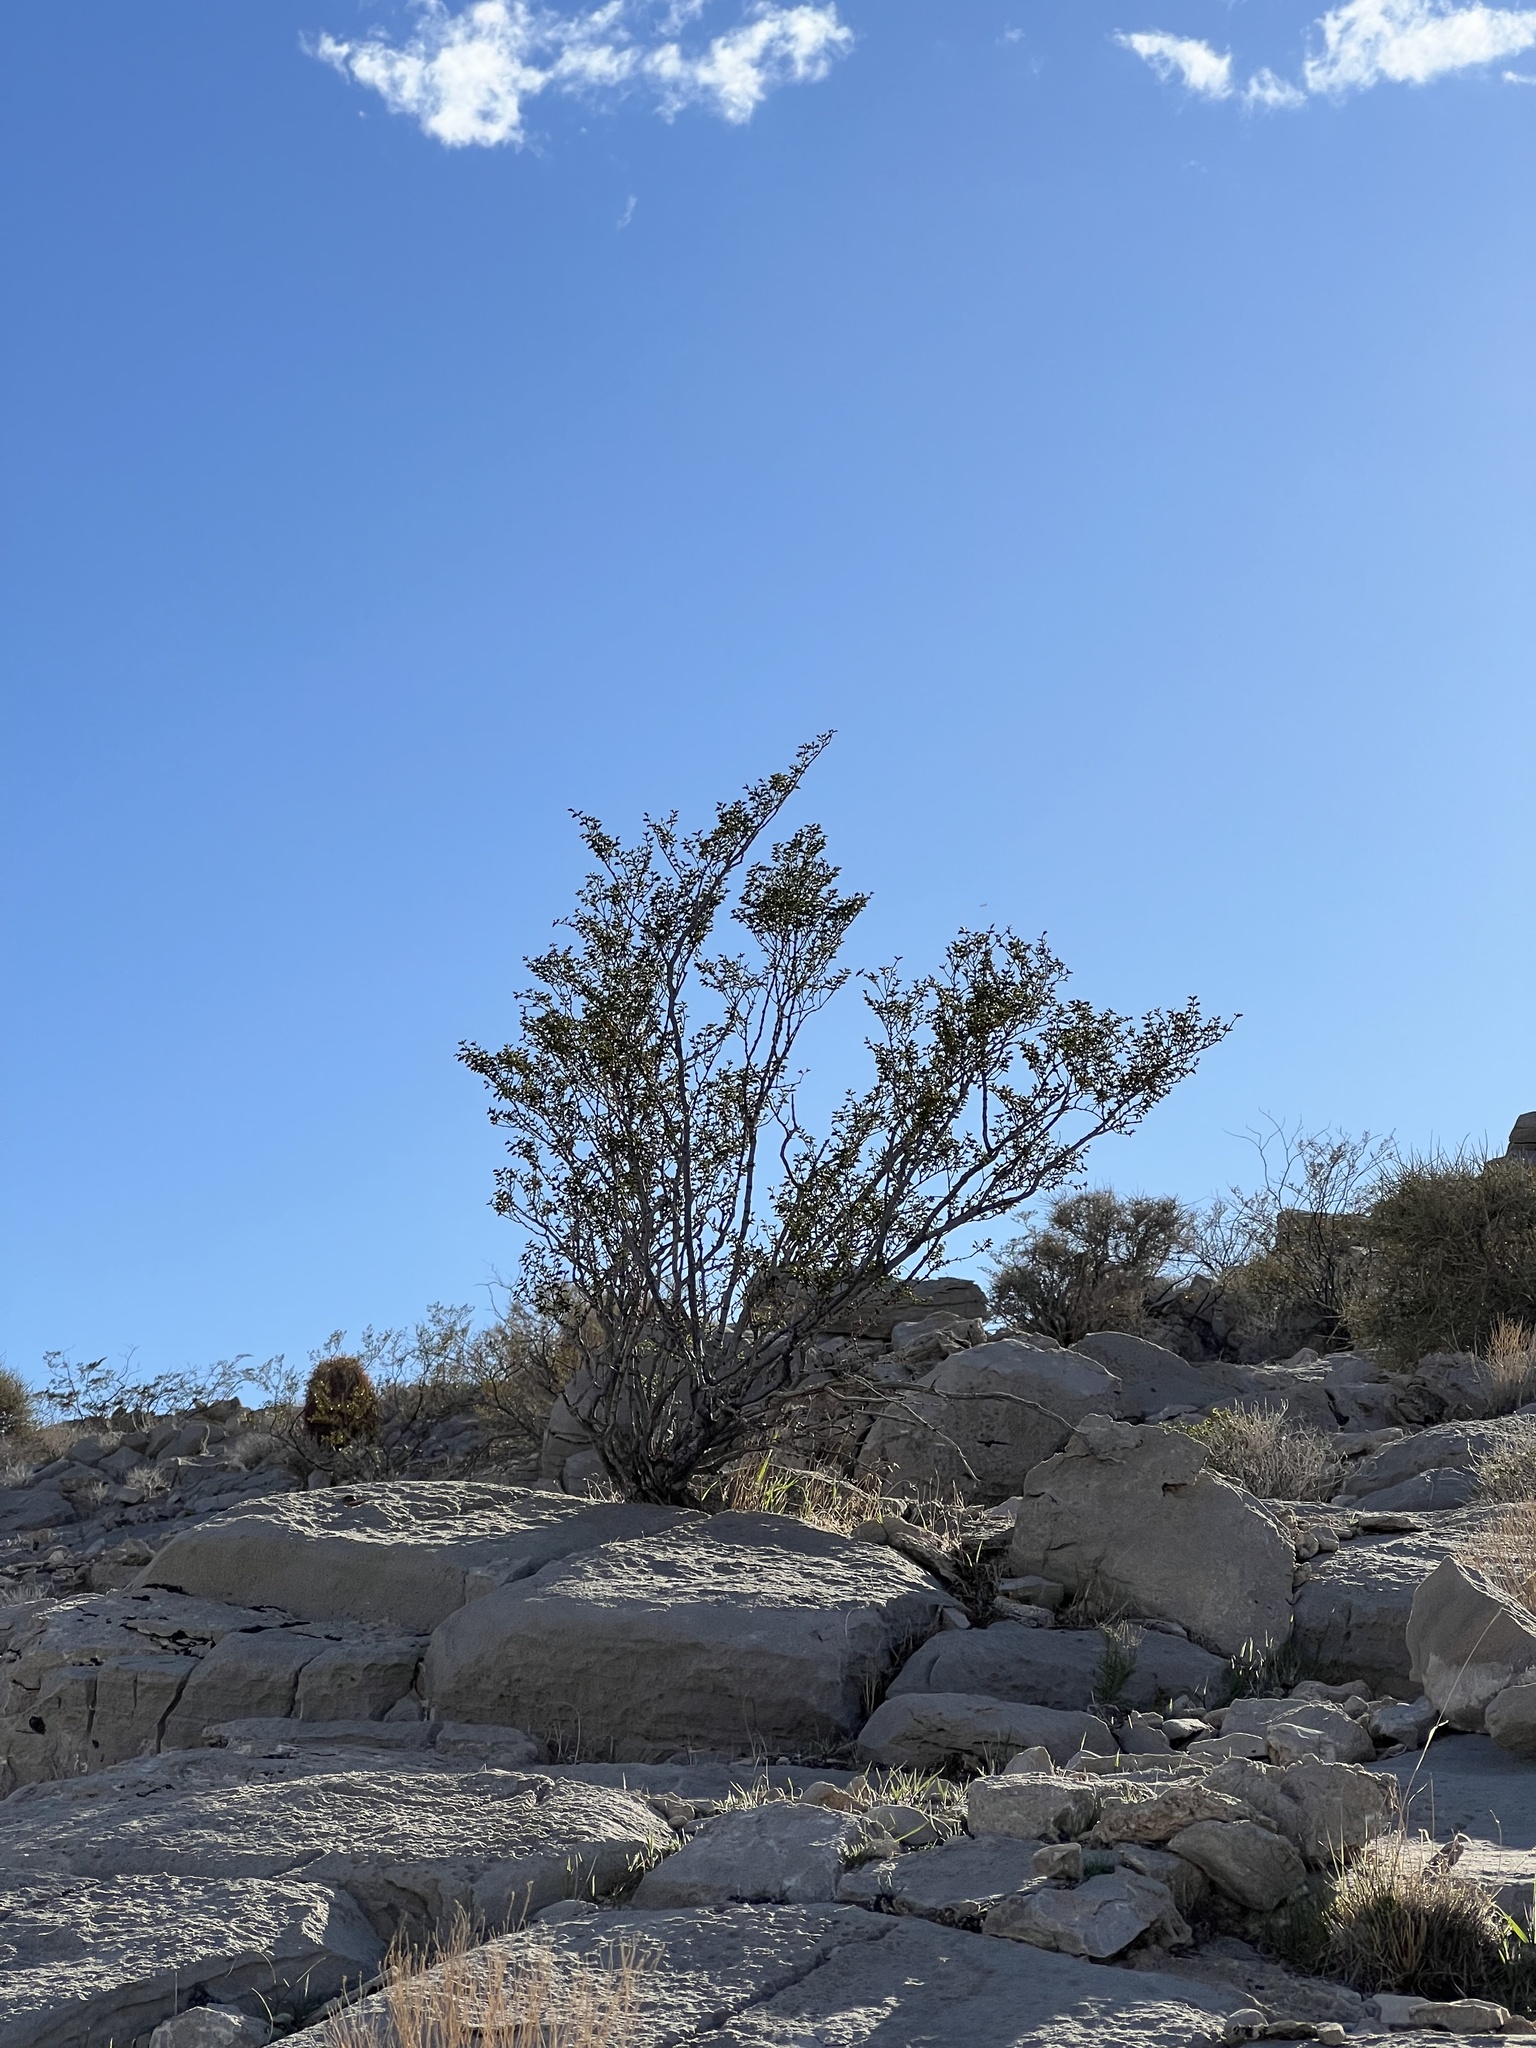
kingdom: Plantae
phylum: Tracheophyta
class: Magnoliopsida
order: Zygophyllales
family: Zygophyllaceae
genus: Larrea
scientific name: Larrea tridentata
